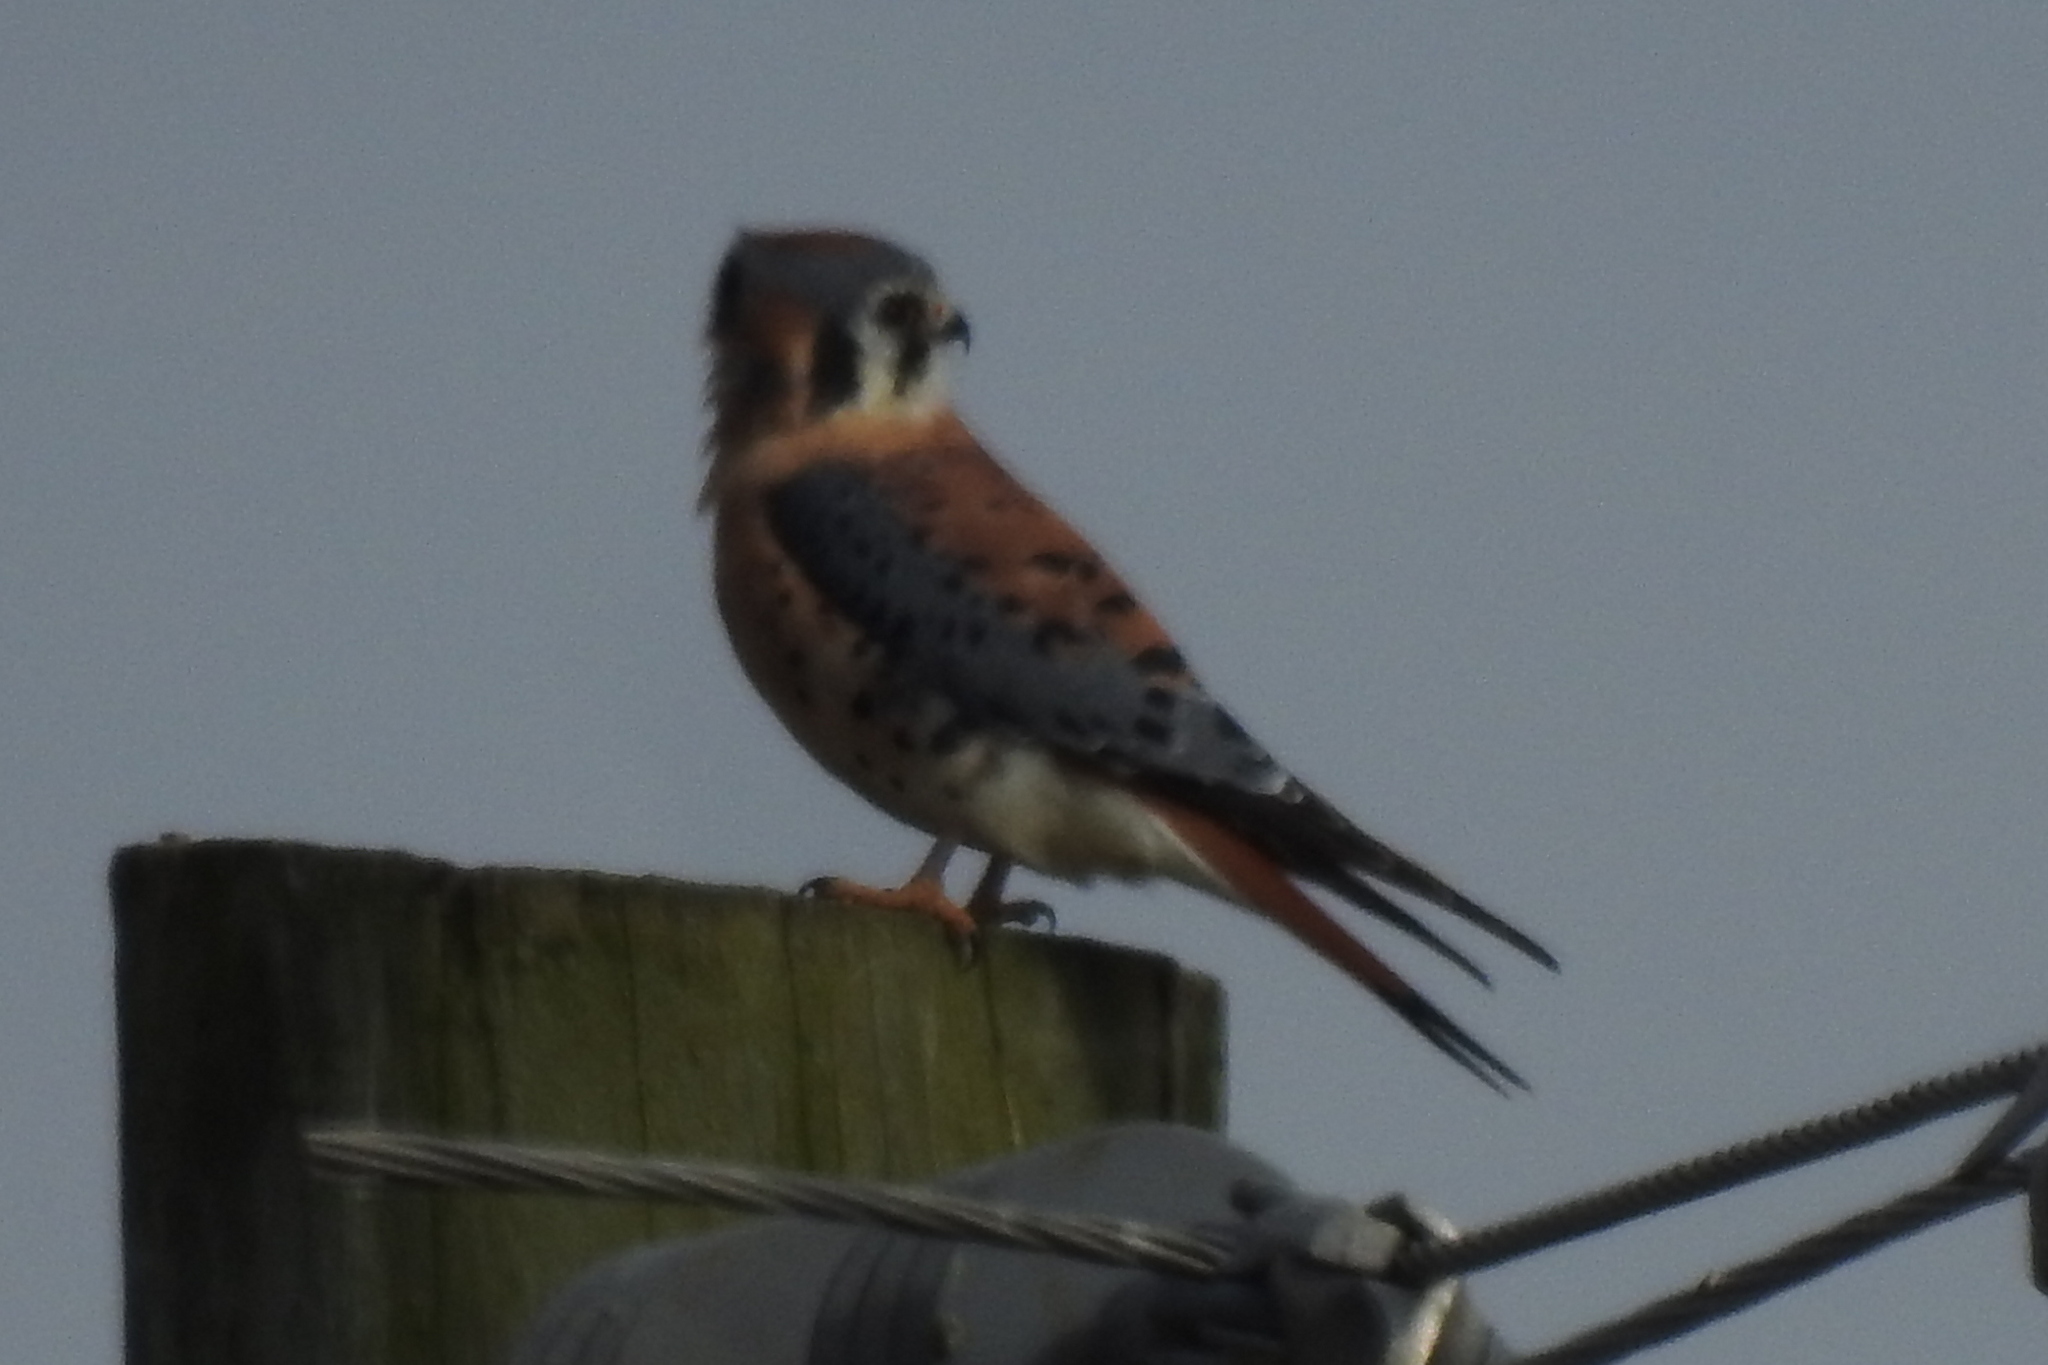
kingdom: Animalia
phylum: Chordata
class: Aves
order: Falconiformes
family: Falconidae
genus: Falco
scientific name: Falco sparverius
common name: American kestrel
